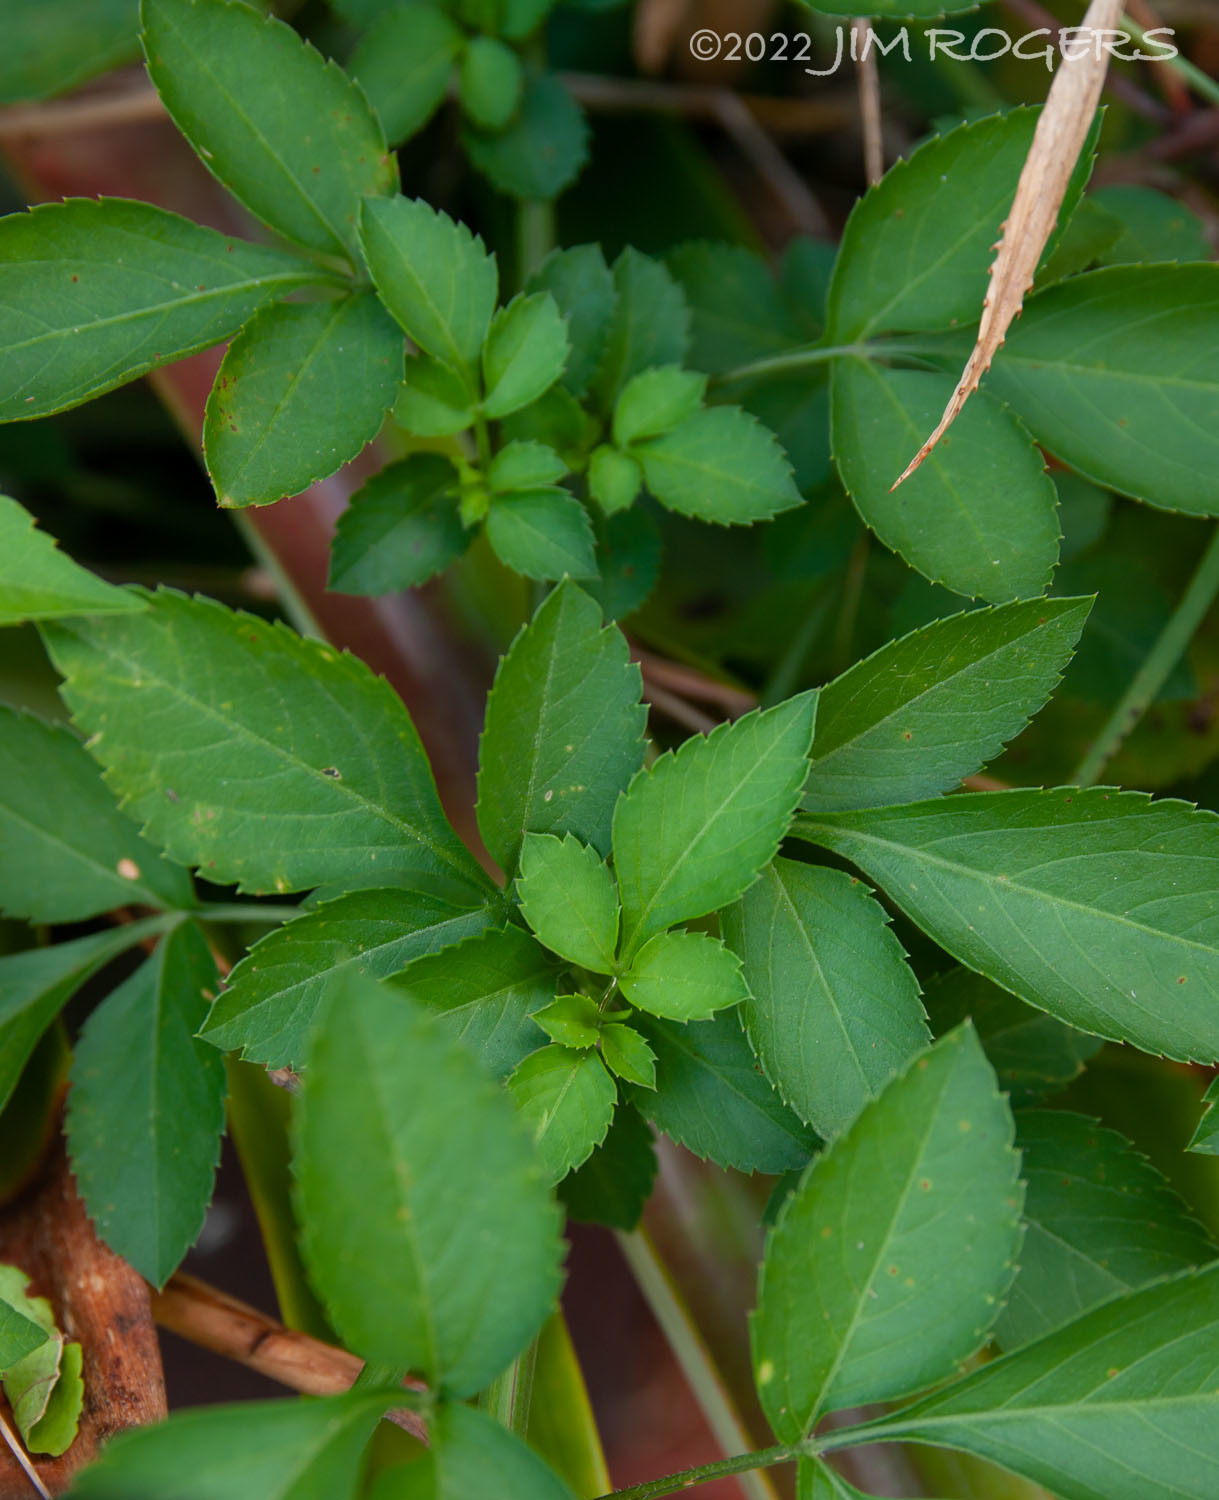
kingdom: Plantae
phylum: Tracheophyta
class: Magnoliopsida
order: Asterales
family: Asteraceae
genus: Bidens
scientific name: Bidens alba
